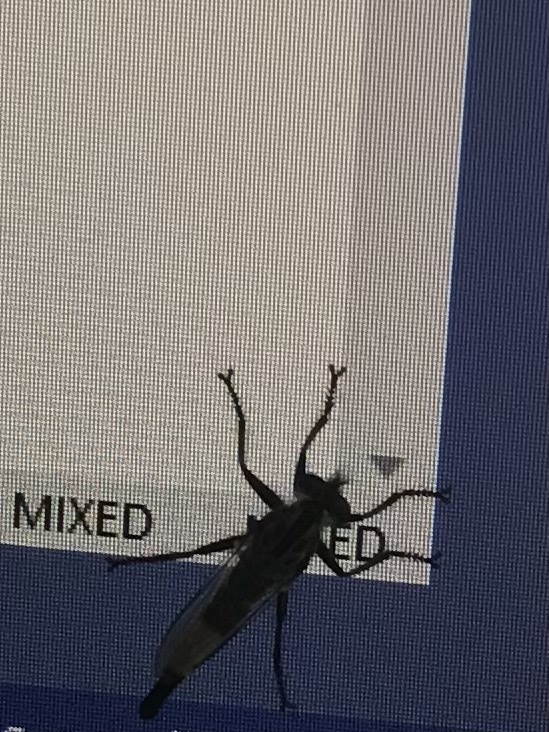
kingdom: Animalia
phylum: Arthropoda
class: Insecta
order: Diptera
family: Asilidae
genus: Efferia
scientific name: Efferia aestuans
